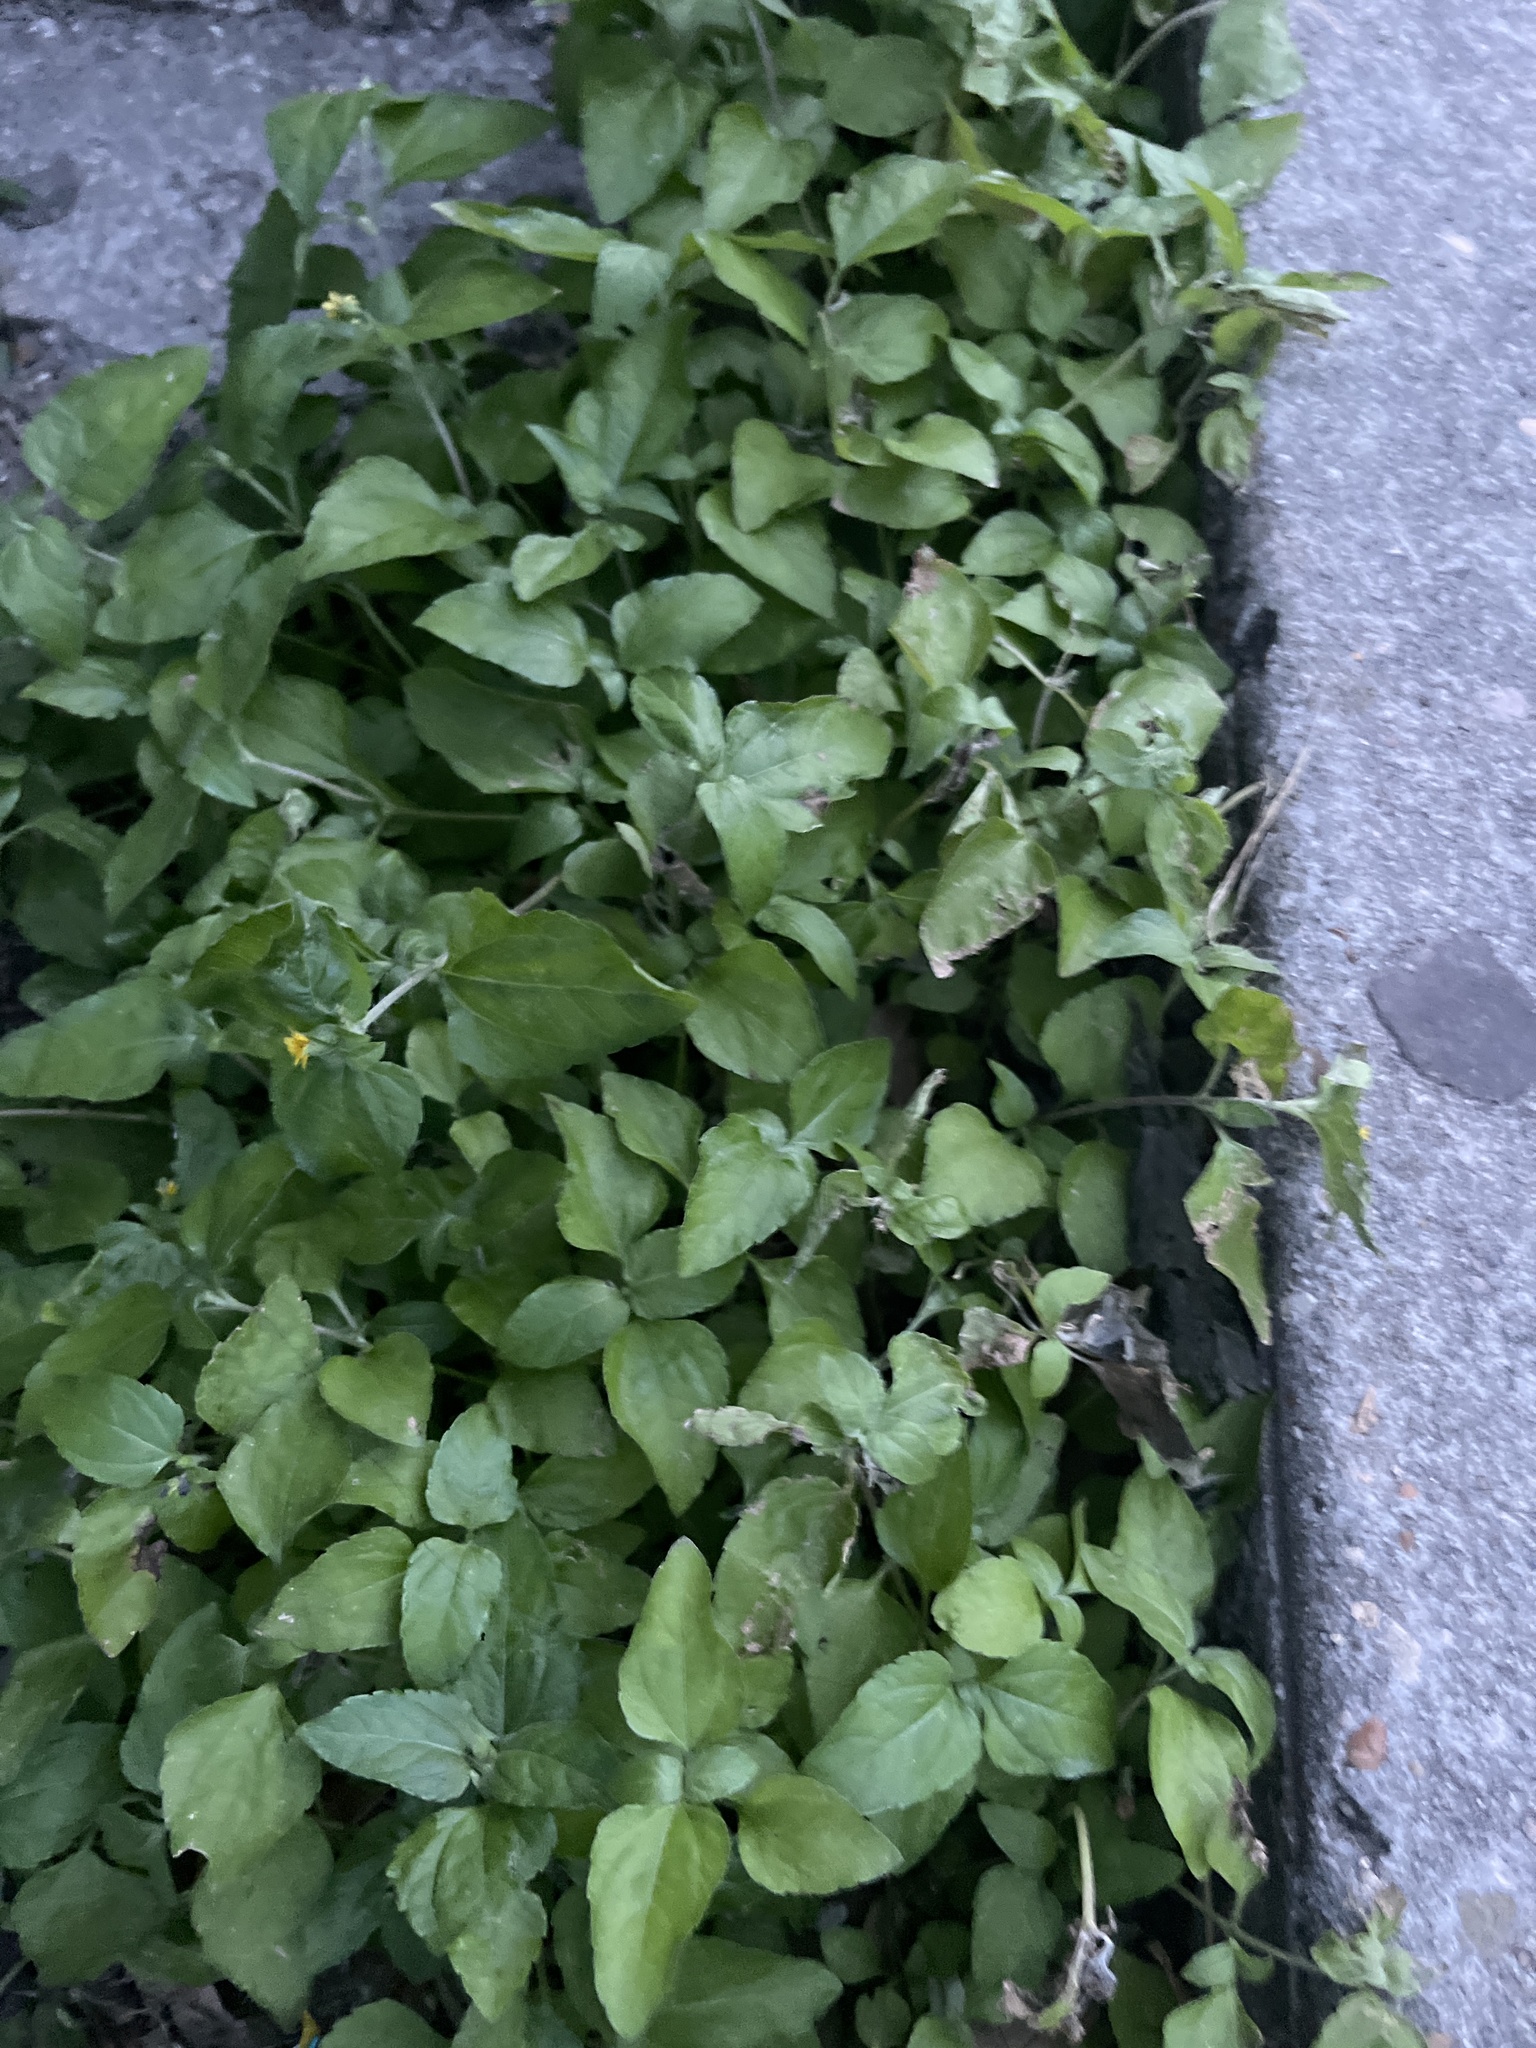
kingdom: Plantae
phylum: Tracheophyta
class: Magnoliopsida
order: Asterales
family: Asteraceae
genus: Calyptocarpus
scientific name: Calyptocarpus vialis
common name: Straggler daisy
